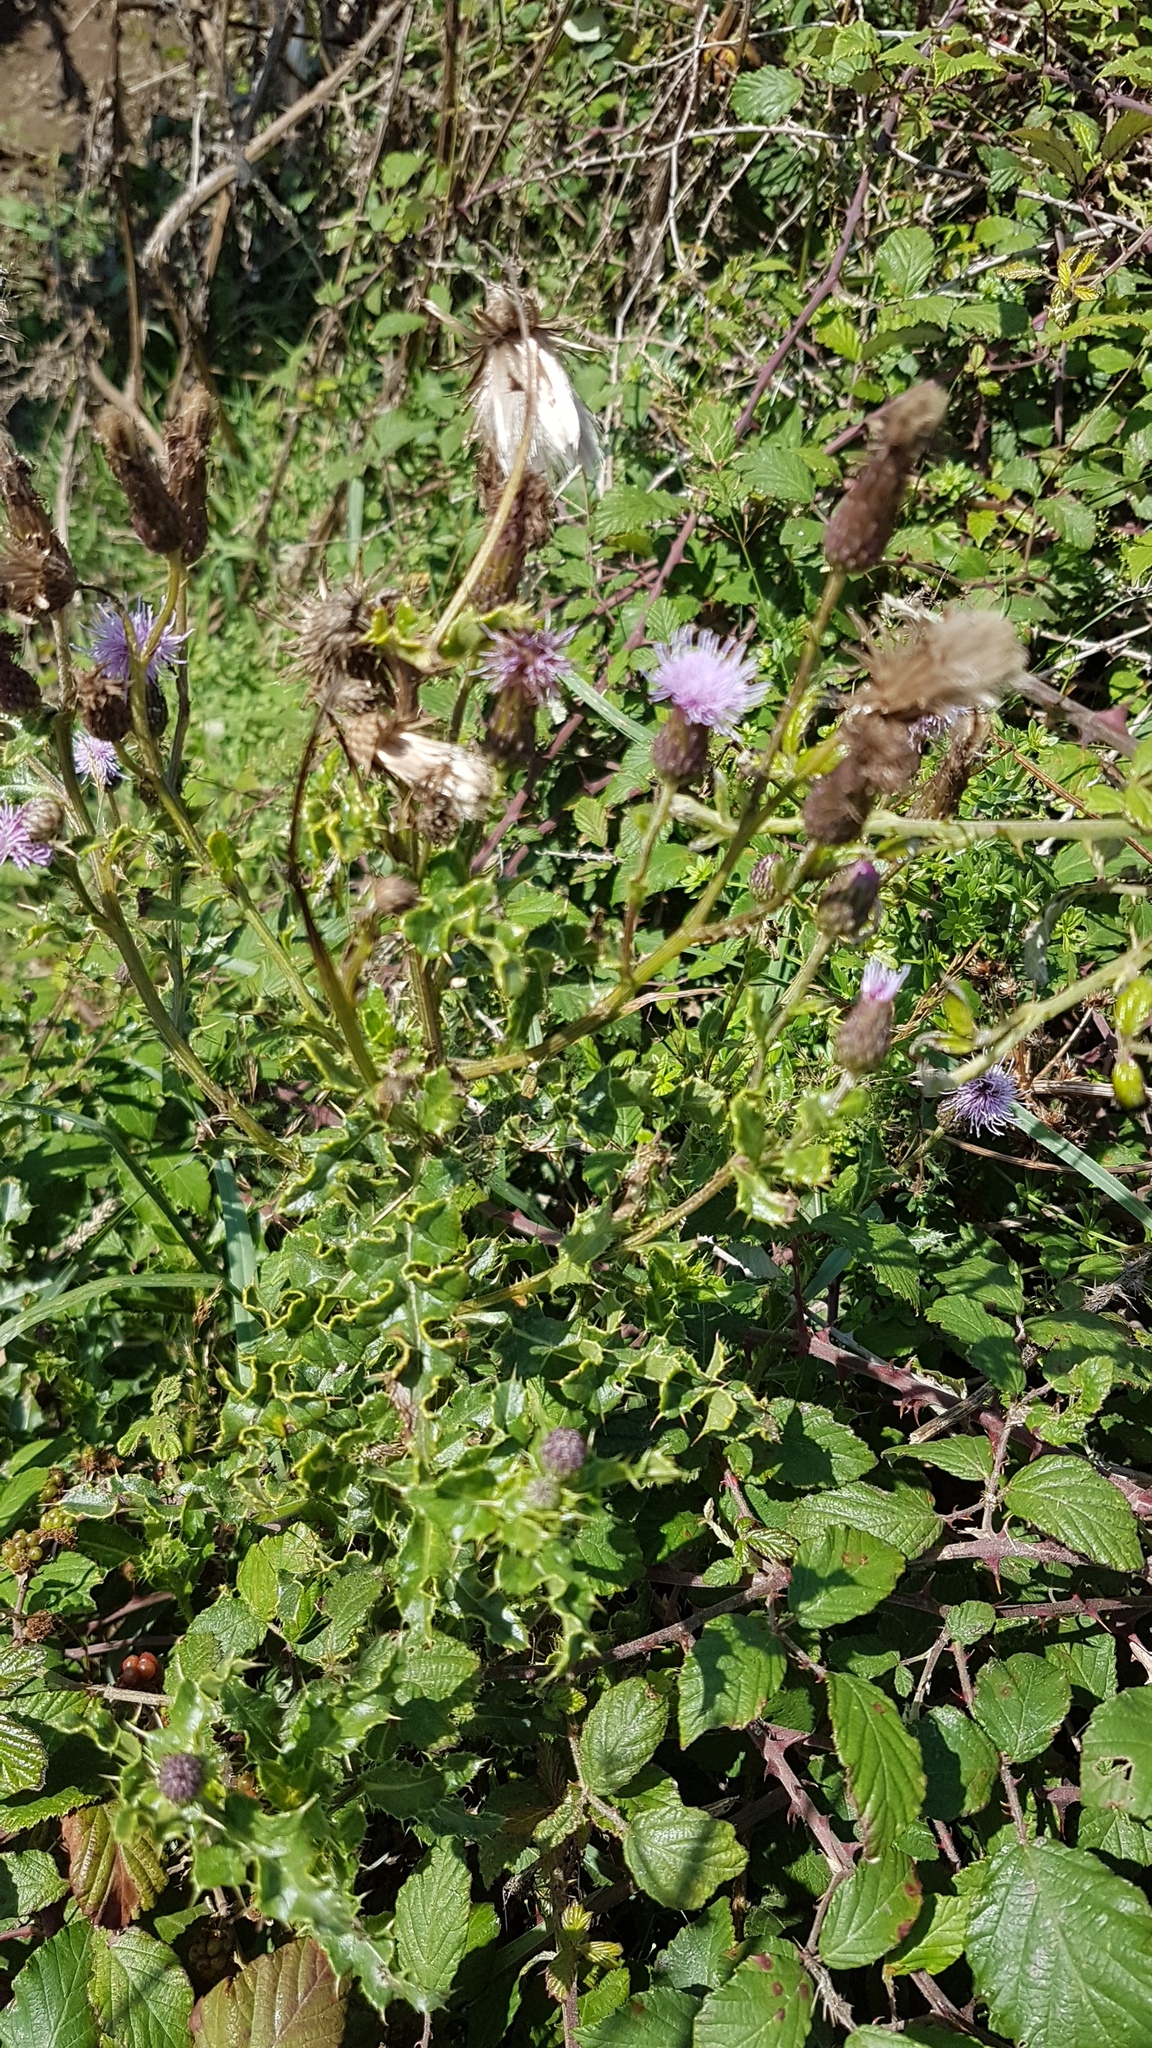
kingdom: Plantae
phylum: Tracheophyta
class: Magnoliopsida
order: Asterales
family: Asteraceae
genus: Cirsium
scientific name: Cirsium arvense
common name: Creeping thistle
